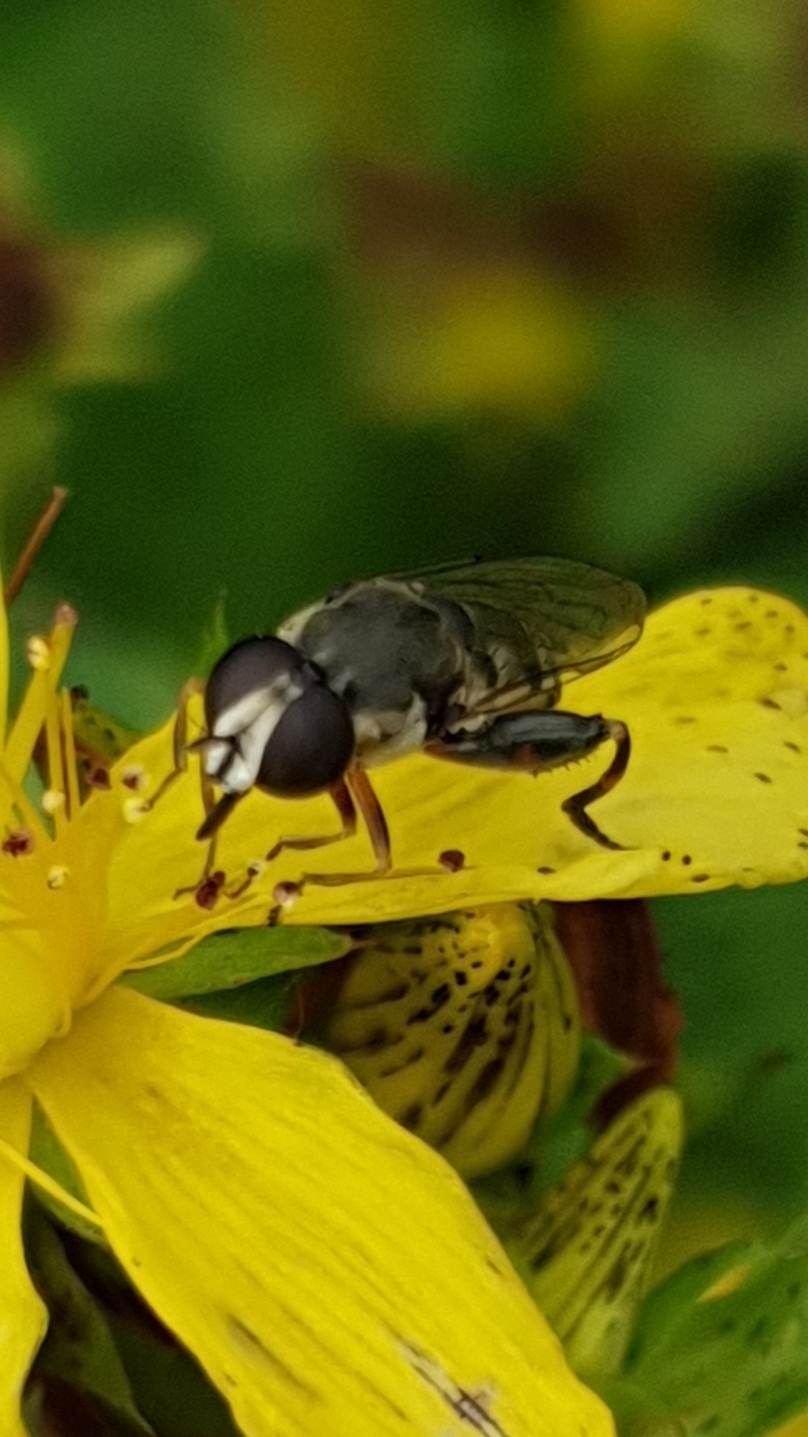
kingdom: Animalia
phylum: Arthropoda
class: Insecta
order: Diptera
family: Syrphidae
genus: Syritta
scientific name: Syritta pipiens
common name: Hover fly
